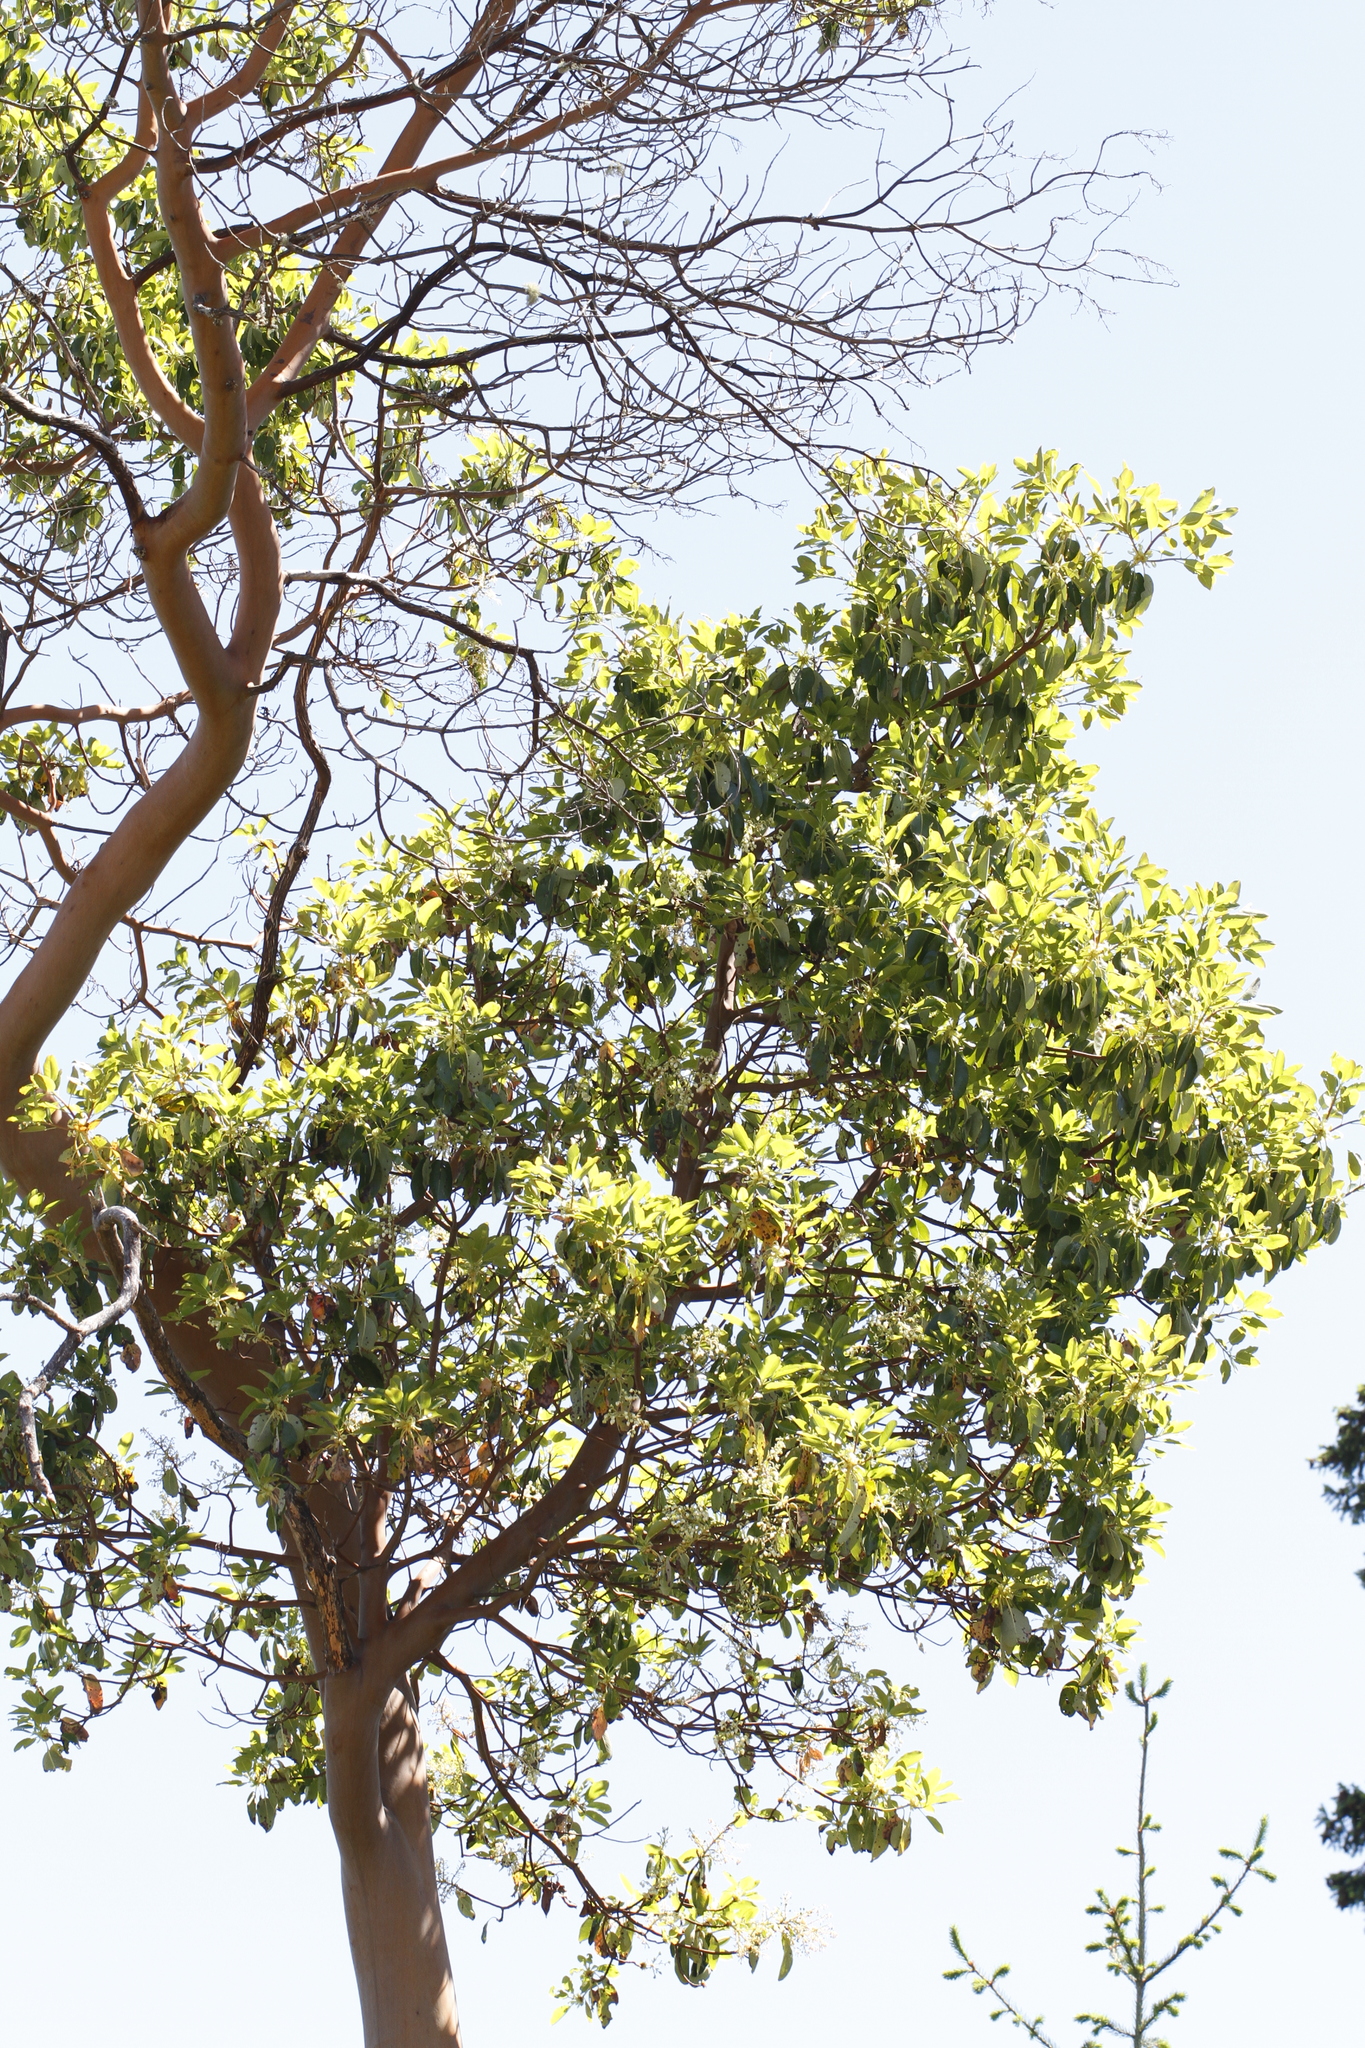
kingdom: Plantae
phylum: Tracheophyta
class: Magnoliopsida
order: Ericales
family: Ericaceae
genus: Arbutus
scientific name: Arbutus menziesii
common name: Pacific madrone
